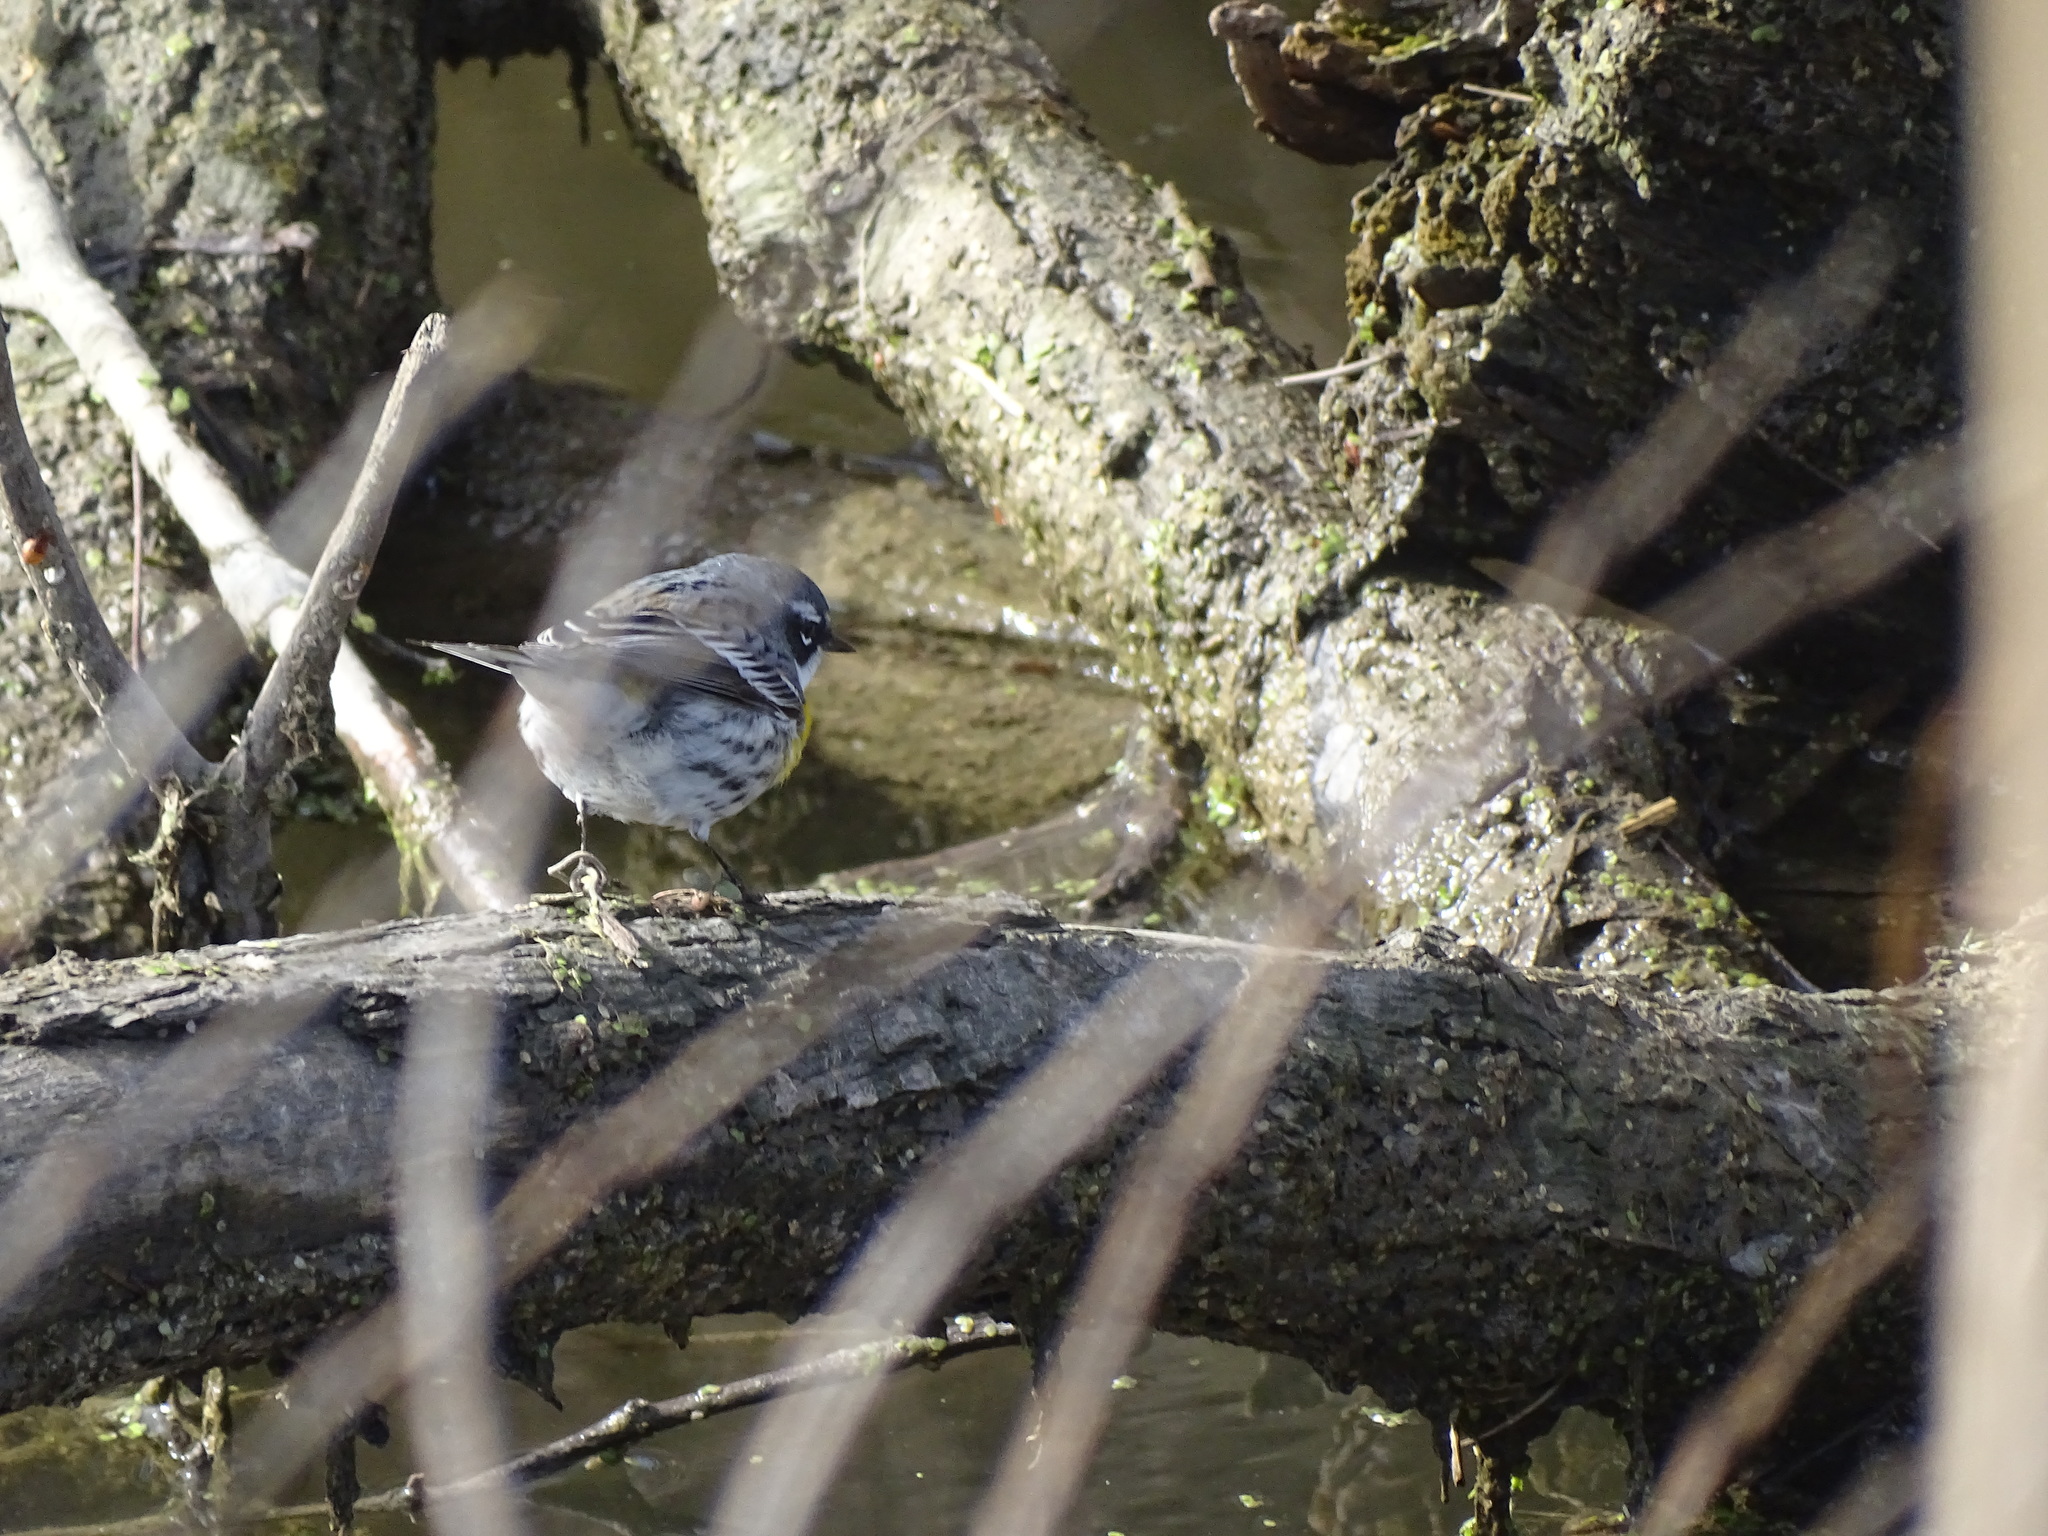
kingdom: Animalia
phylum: Chordata
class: Aves
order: Passeriformes
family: Parulidae
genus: Setophaga
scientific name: Setophaga coronata
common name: Myrtle warbler
